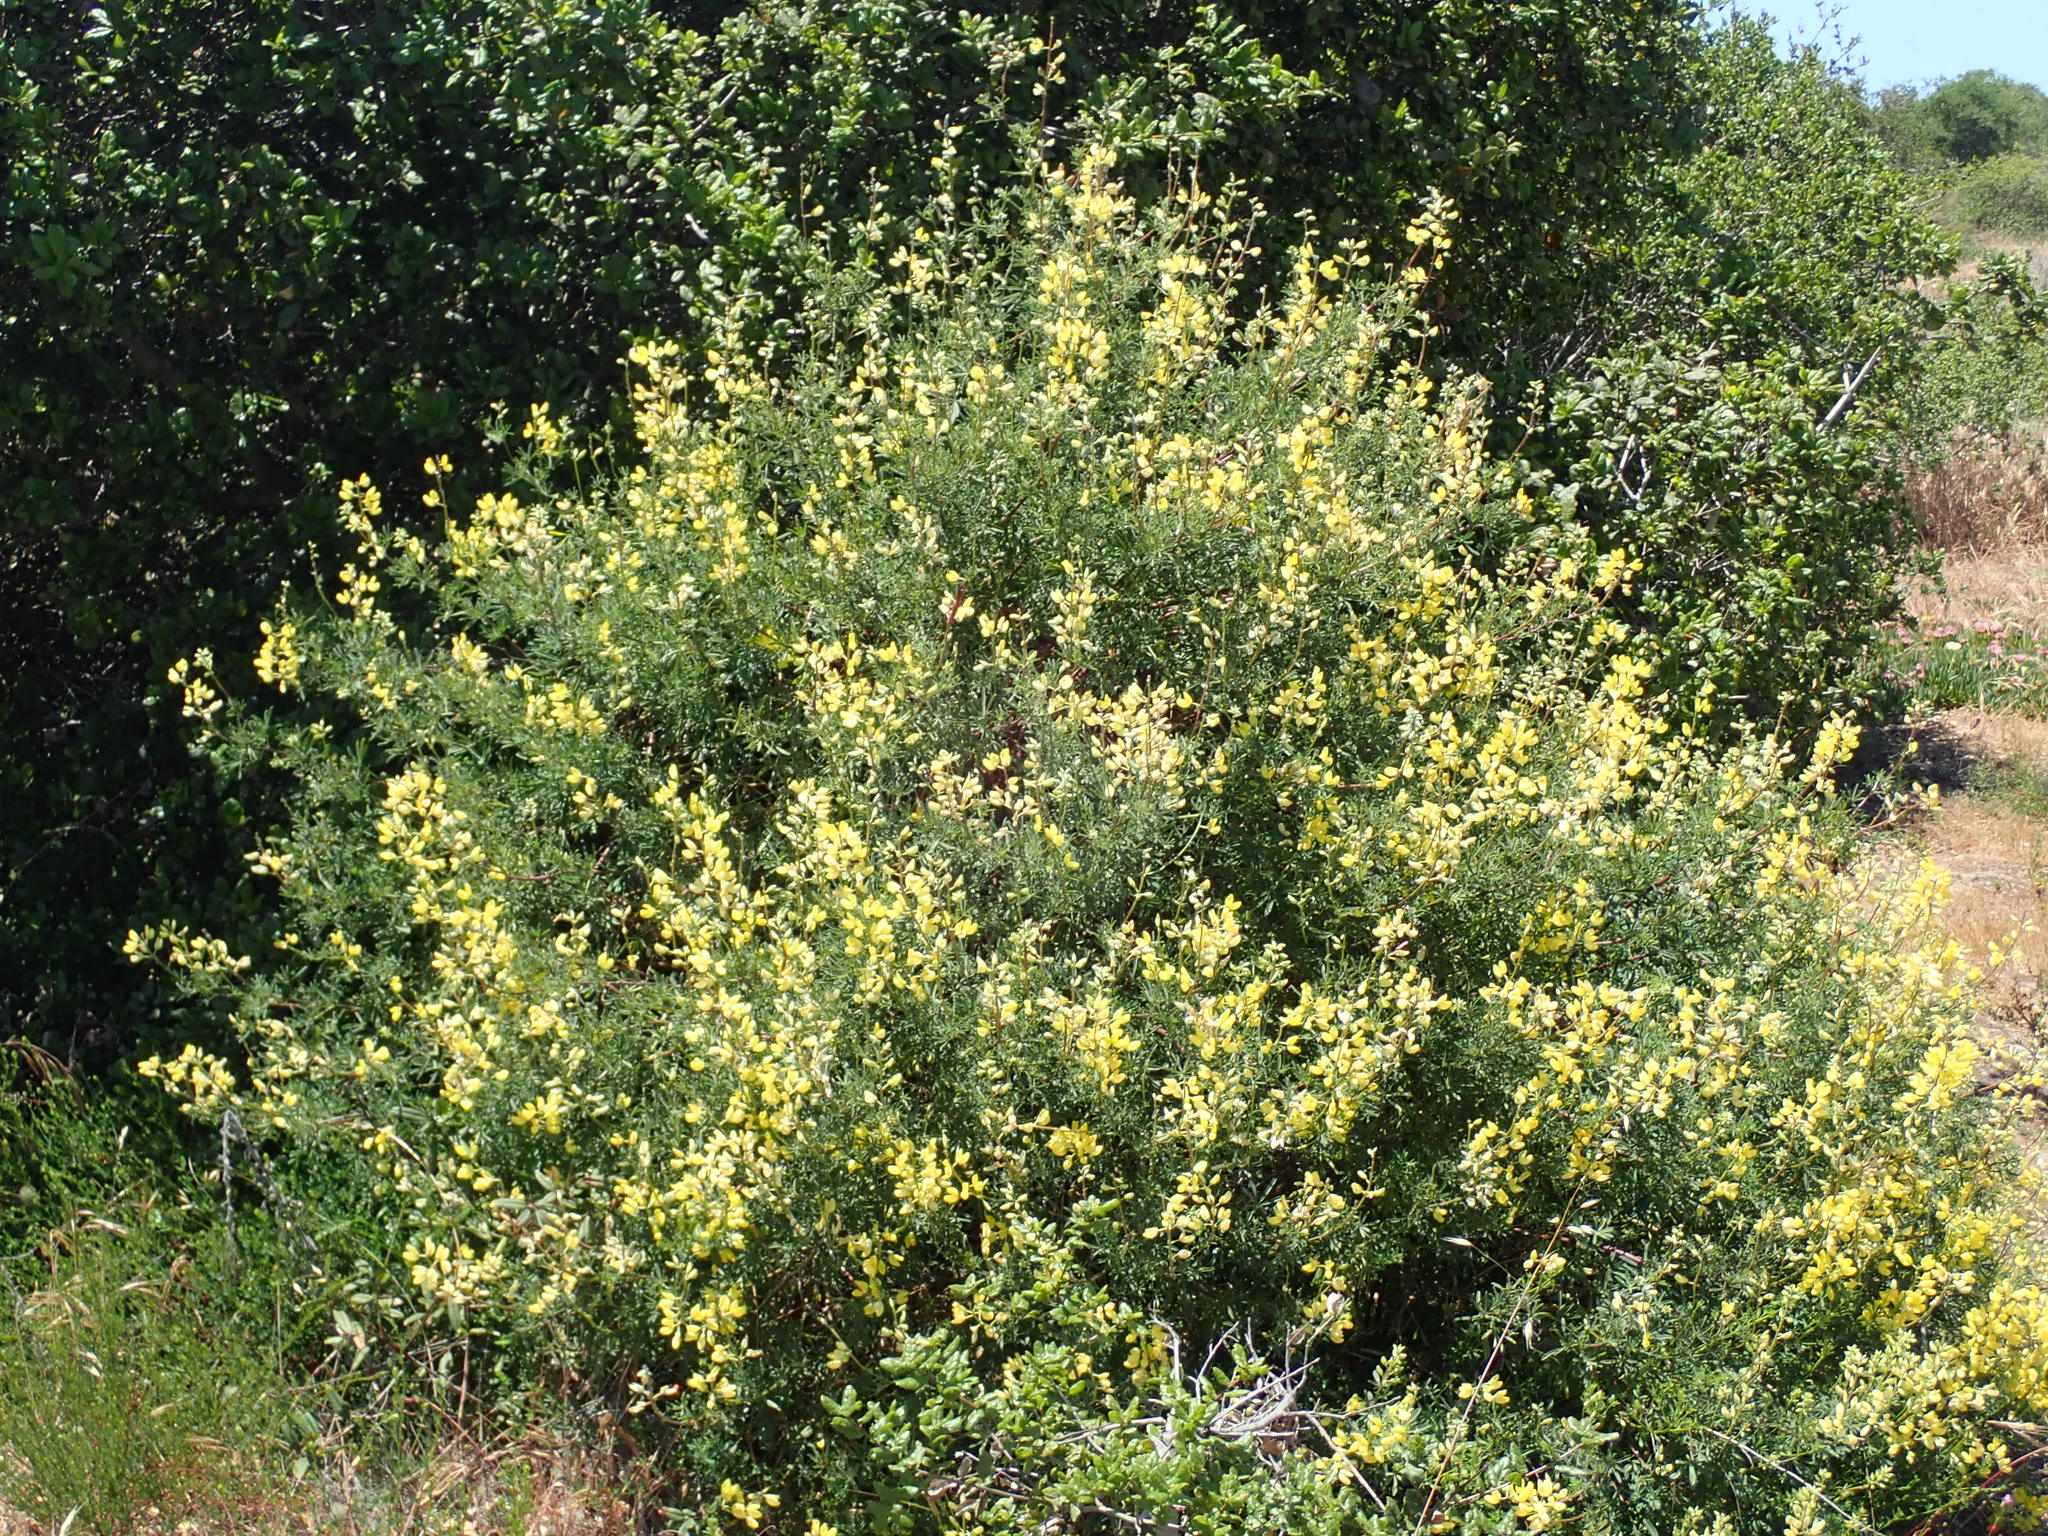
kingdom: Plantae
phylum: Tracheophyta
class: Magnoliopsida
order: Fabales
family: Fabaceae
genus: Lupinus
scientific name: Lupinus arboreus
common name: Yellow bush lupine
